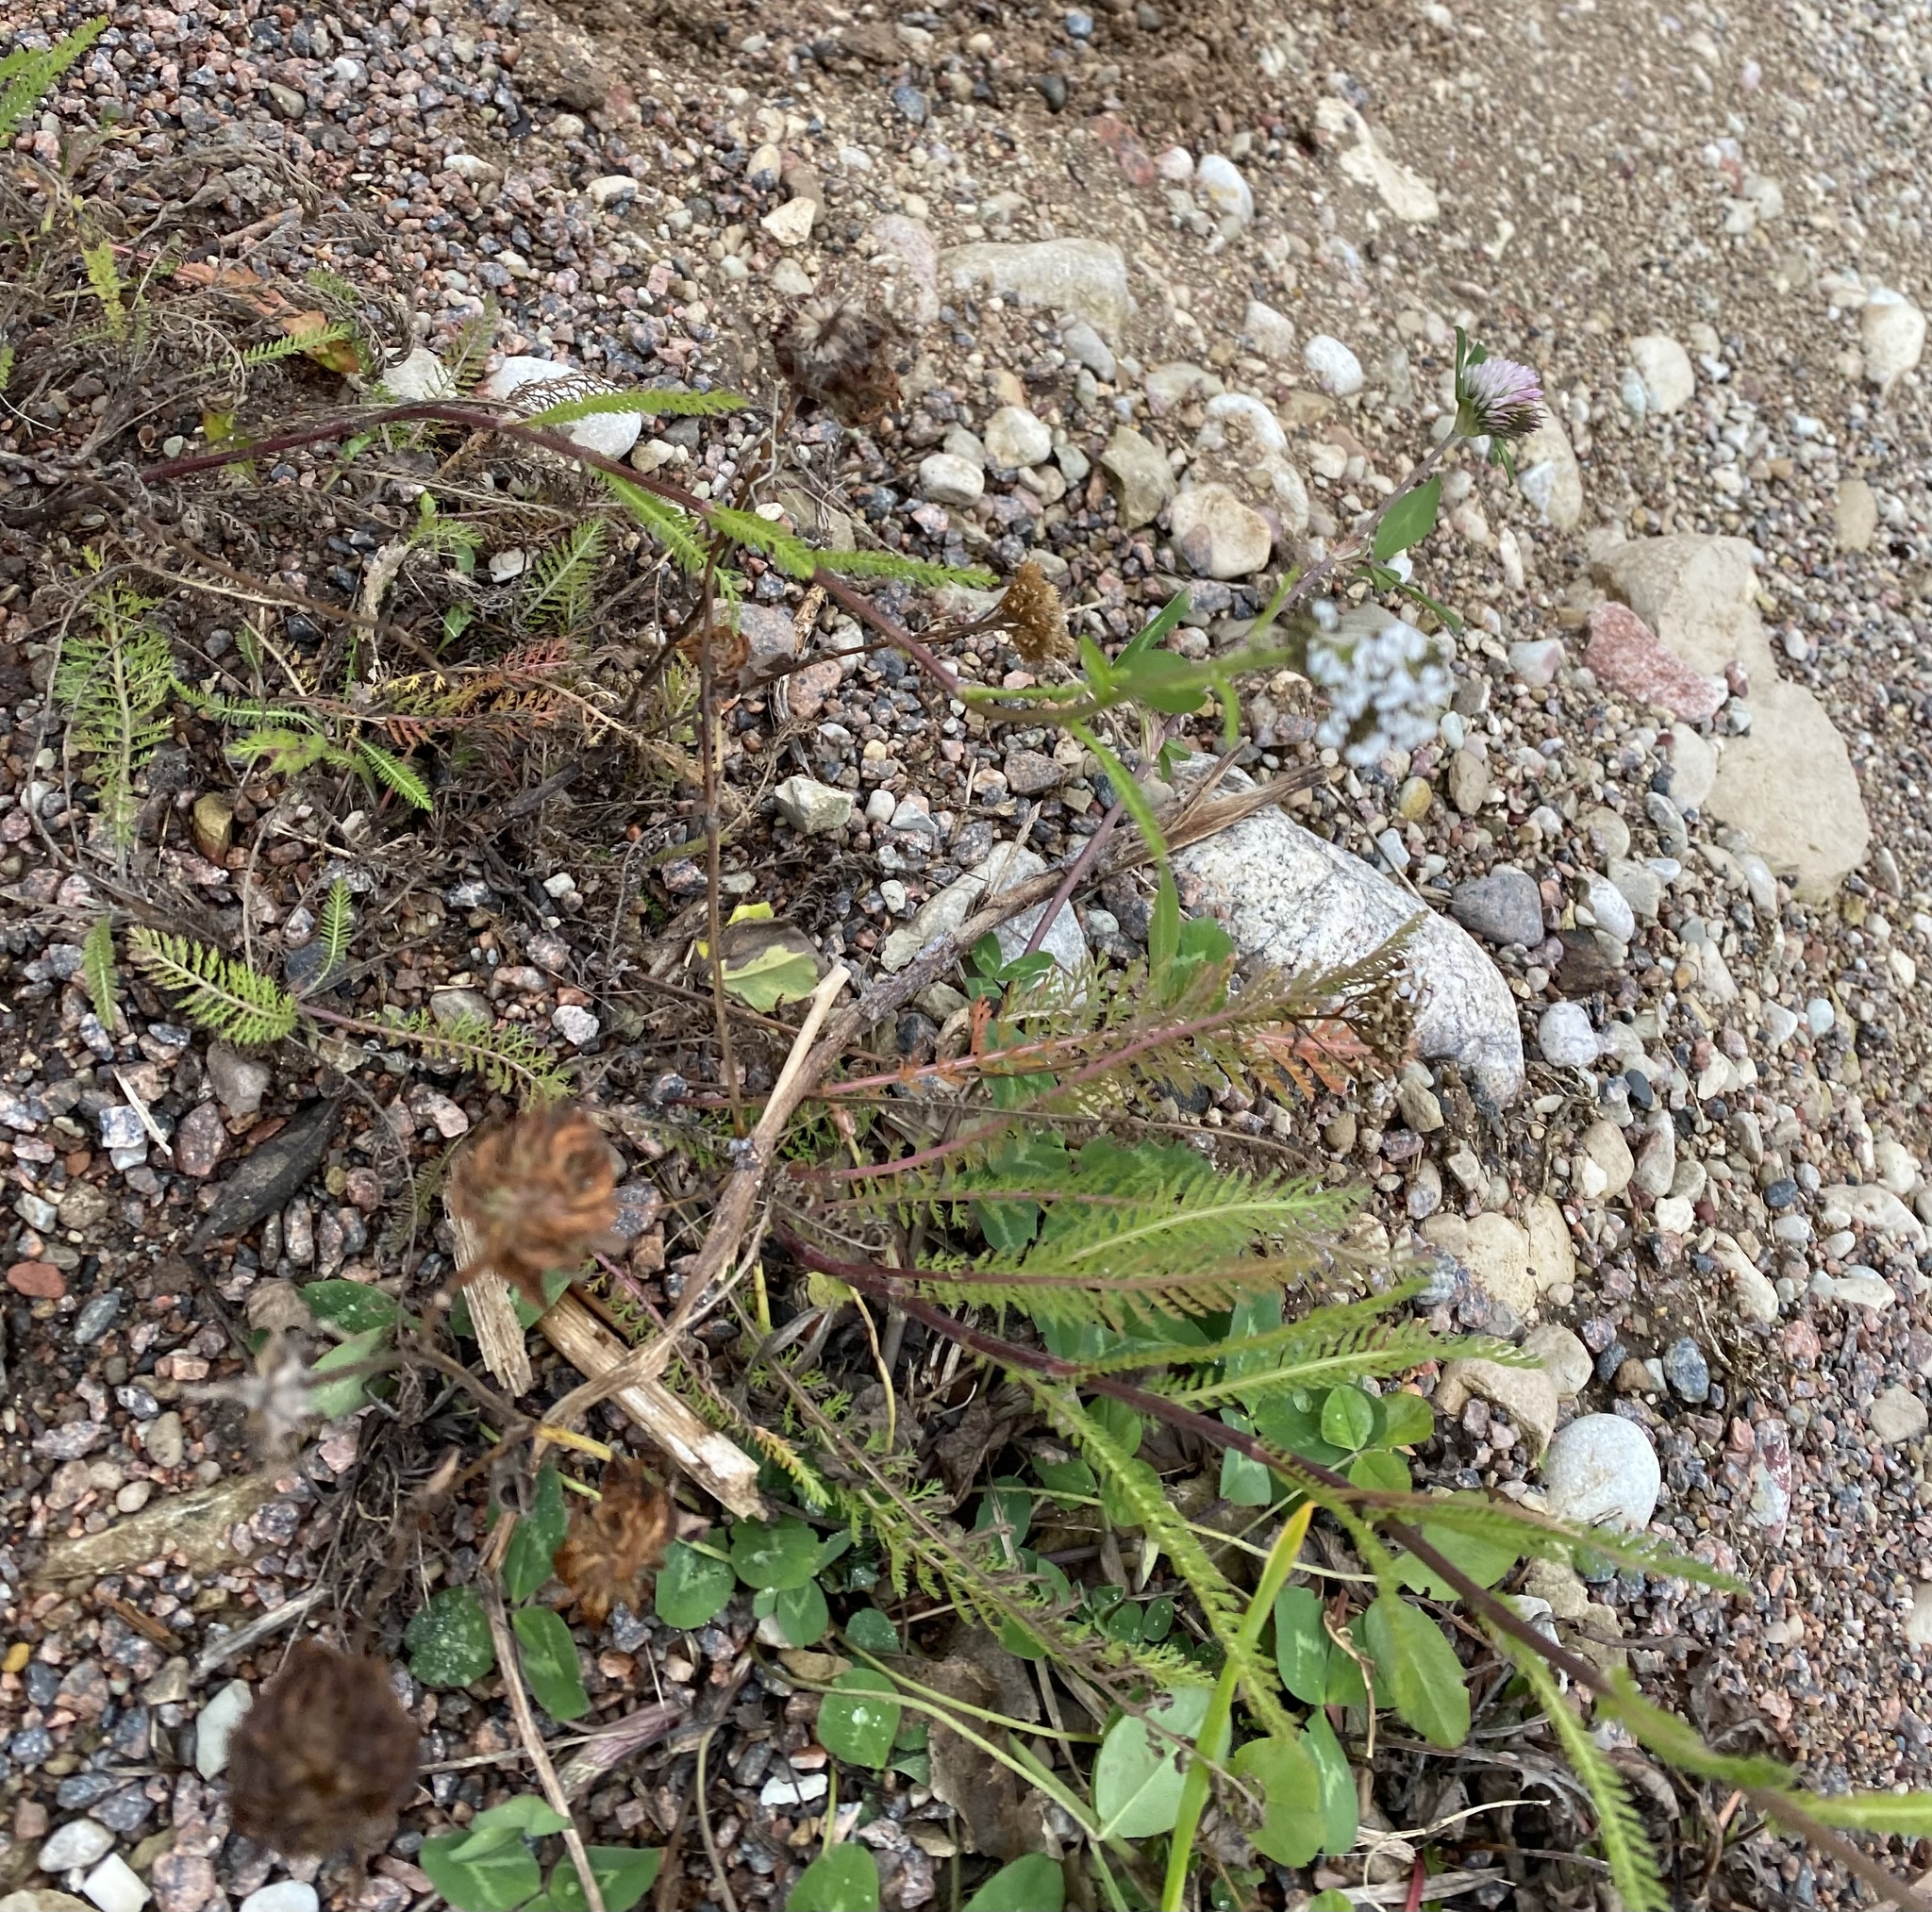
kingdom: Plantae
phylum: Tracheophyta
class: Magnoliopsida
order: Asterales
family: Asteraceae
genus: Achillea
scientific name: Achillea millefolium
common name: Yarrow
